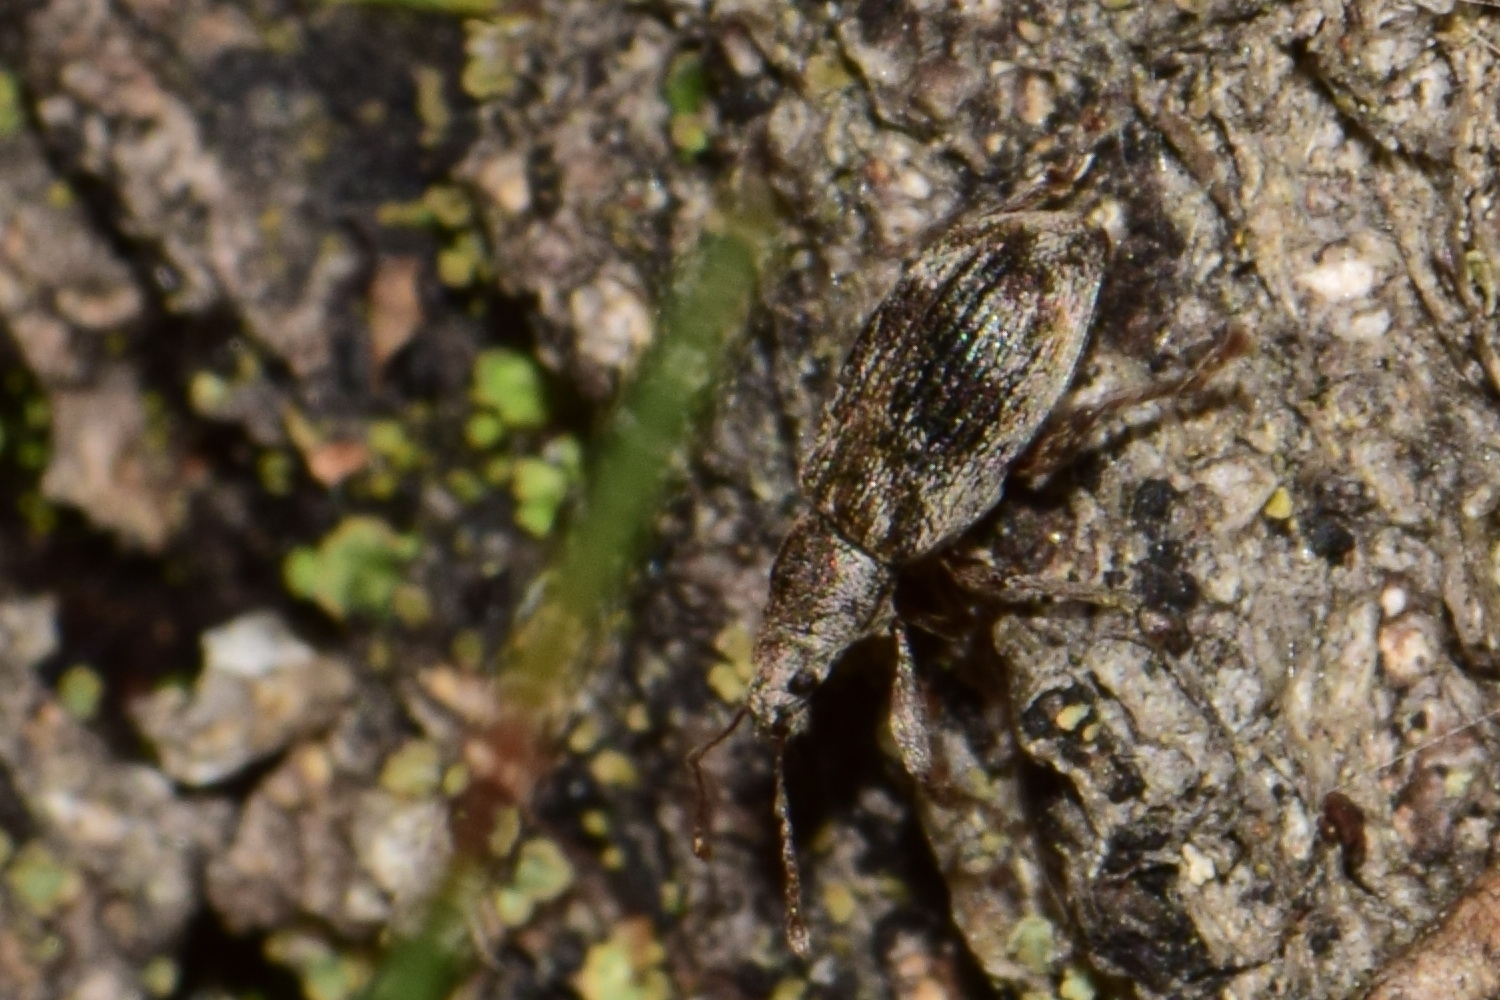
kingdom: Animalia
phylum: Arthropoda
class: Insecta
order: Coleoptera
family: Curculionidae
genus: Polydrusus
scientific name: Polydrusus tereticollis
